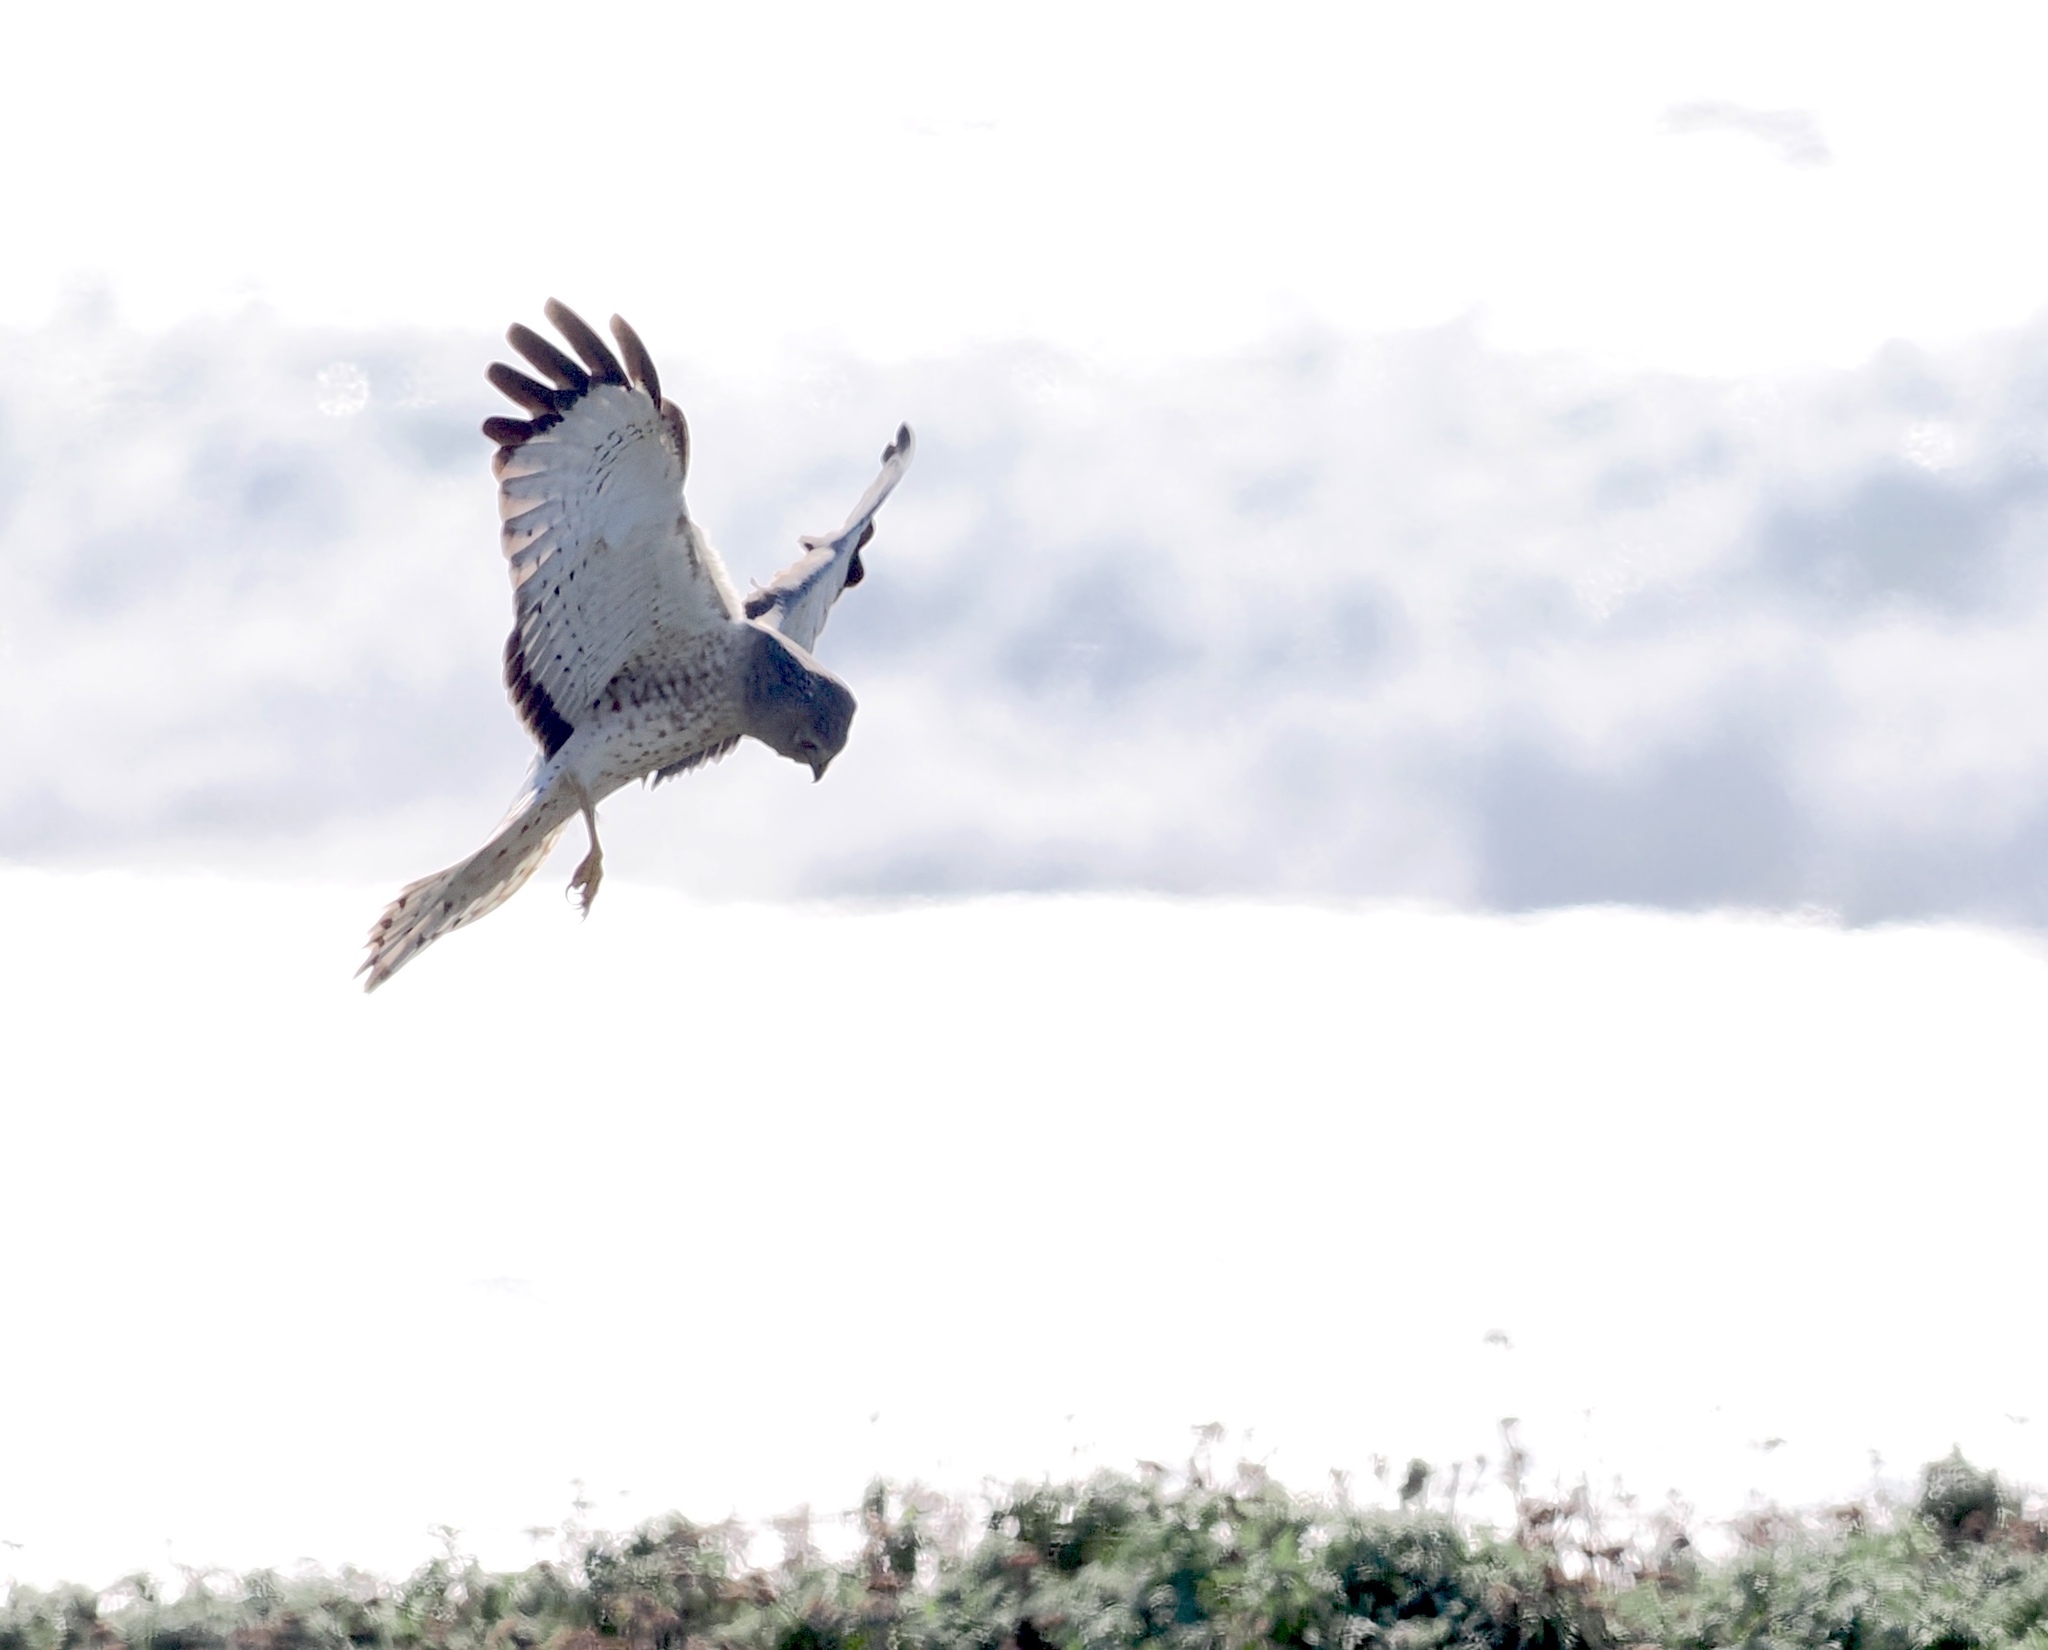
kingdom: Animalia
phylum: Chordata
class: Aves
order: Accipitriformes
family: Accipitridae
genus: Circus
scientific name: Circus cyaneus
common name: Hen harrier
